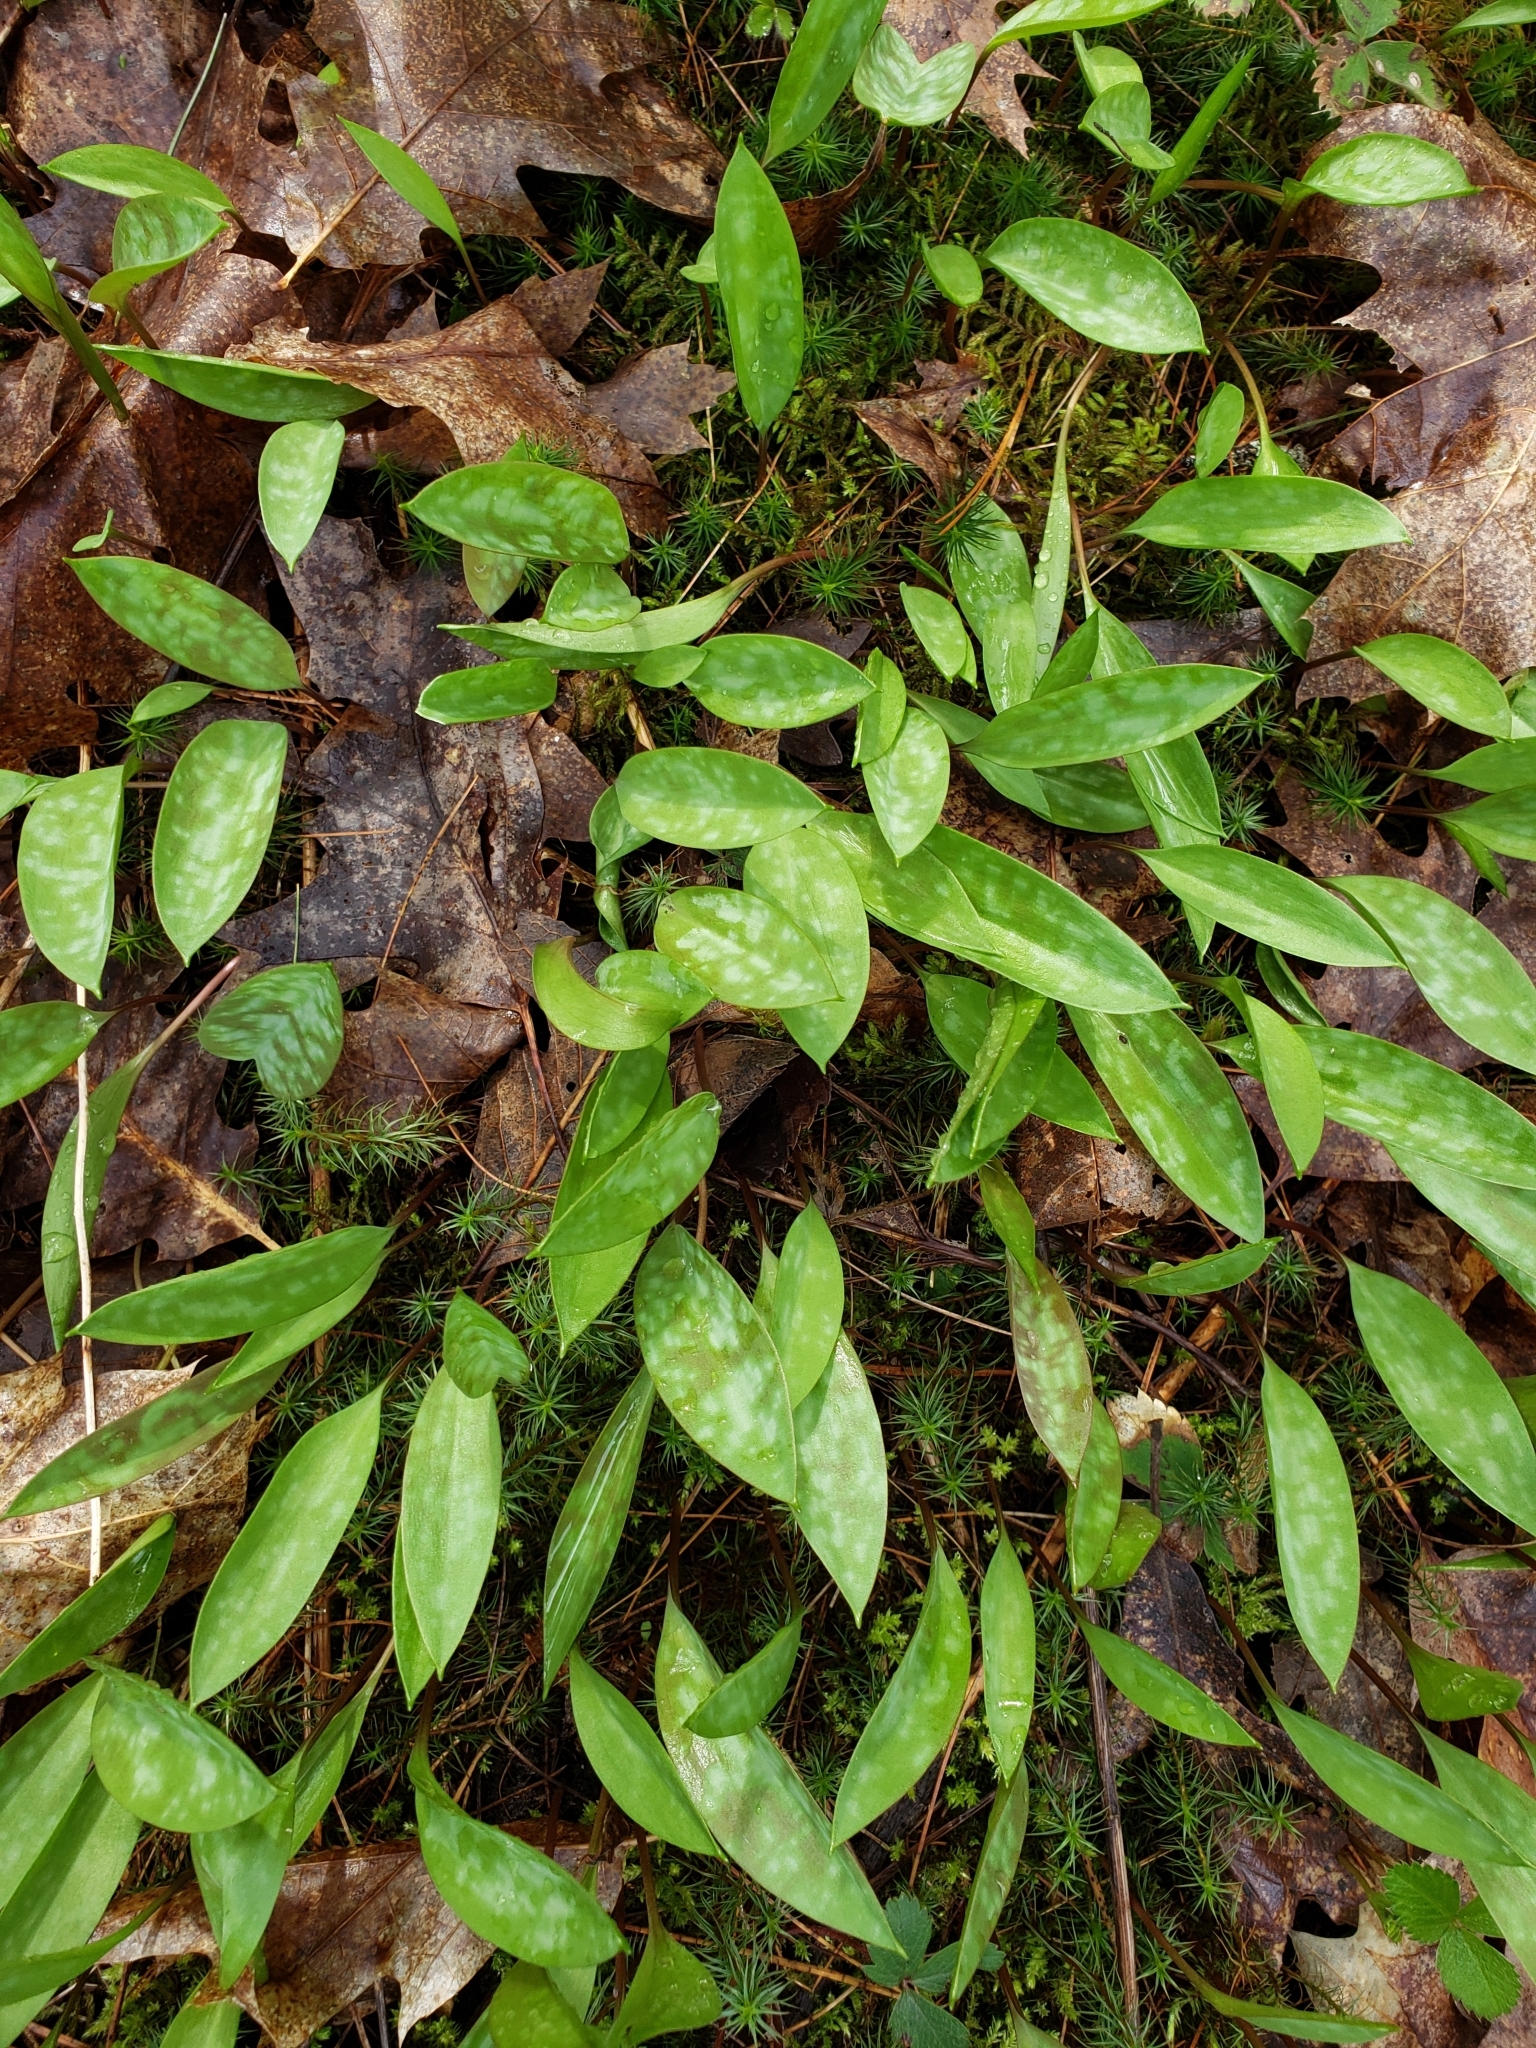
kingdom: Plantae
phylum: Tracheophyta
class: Liliopsida
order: Liliales
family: Liliaceae
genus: Erythronium
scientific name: Erythronium americanum
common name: Yellow adder's-tongue
